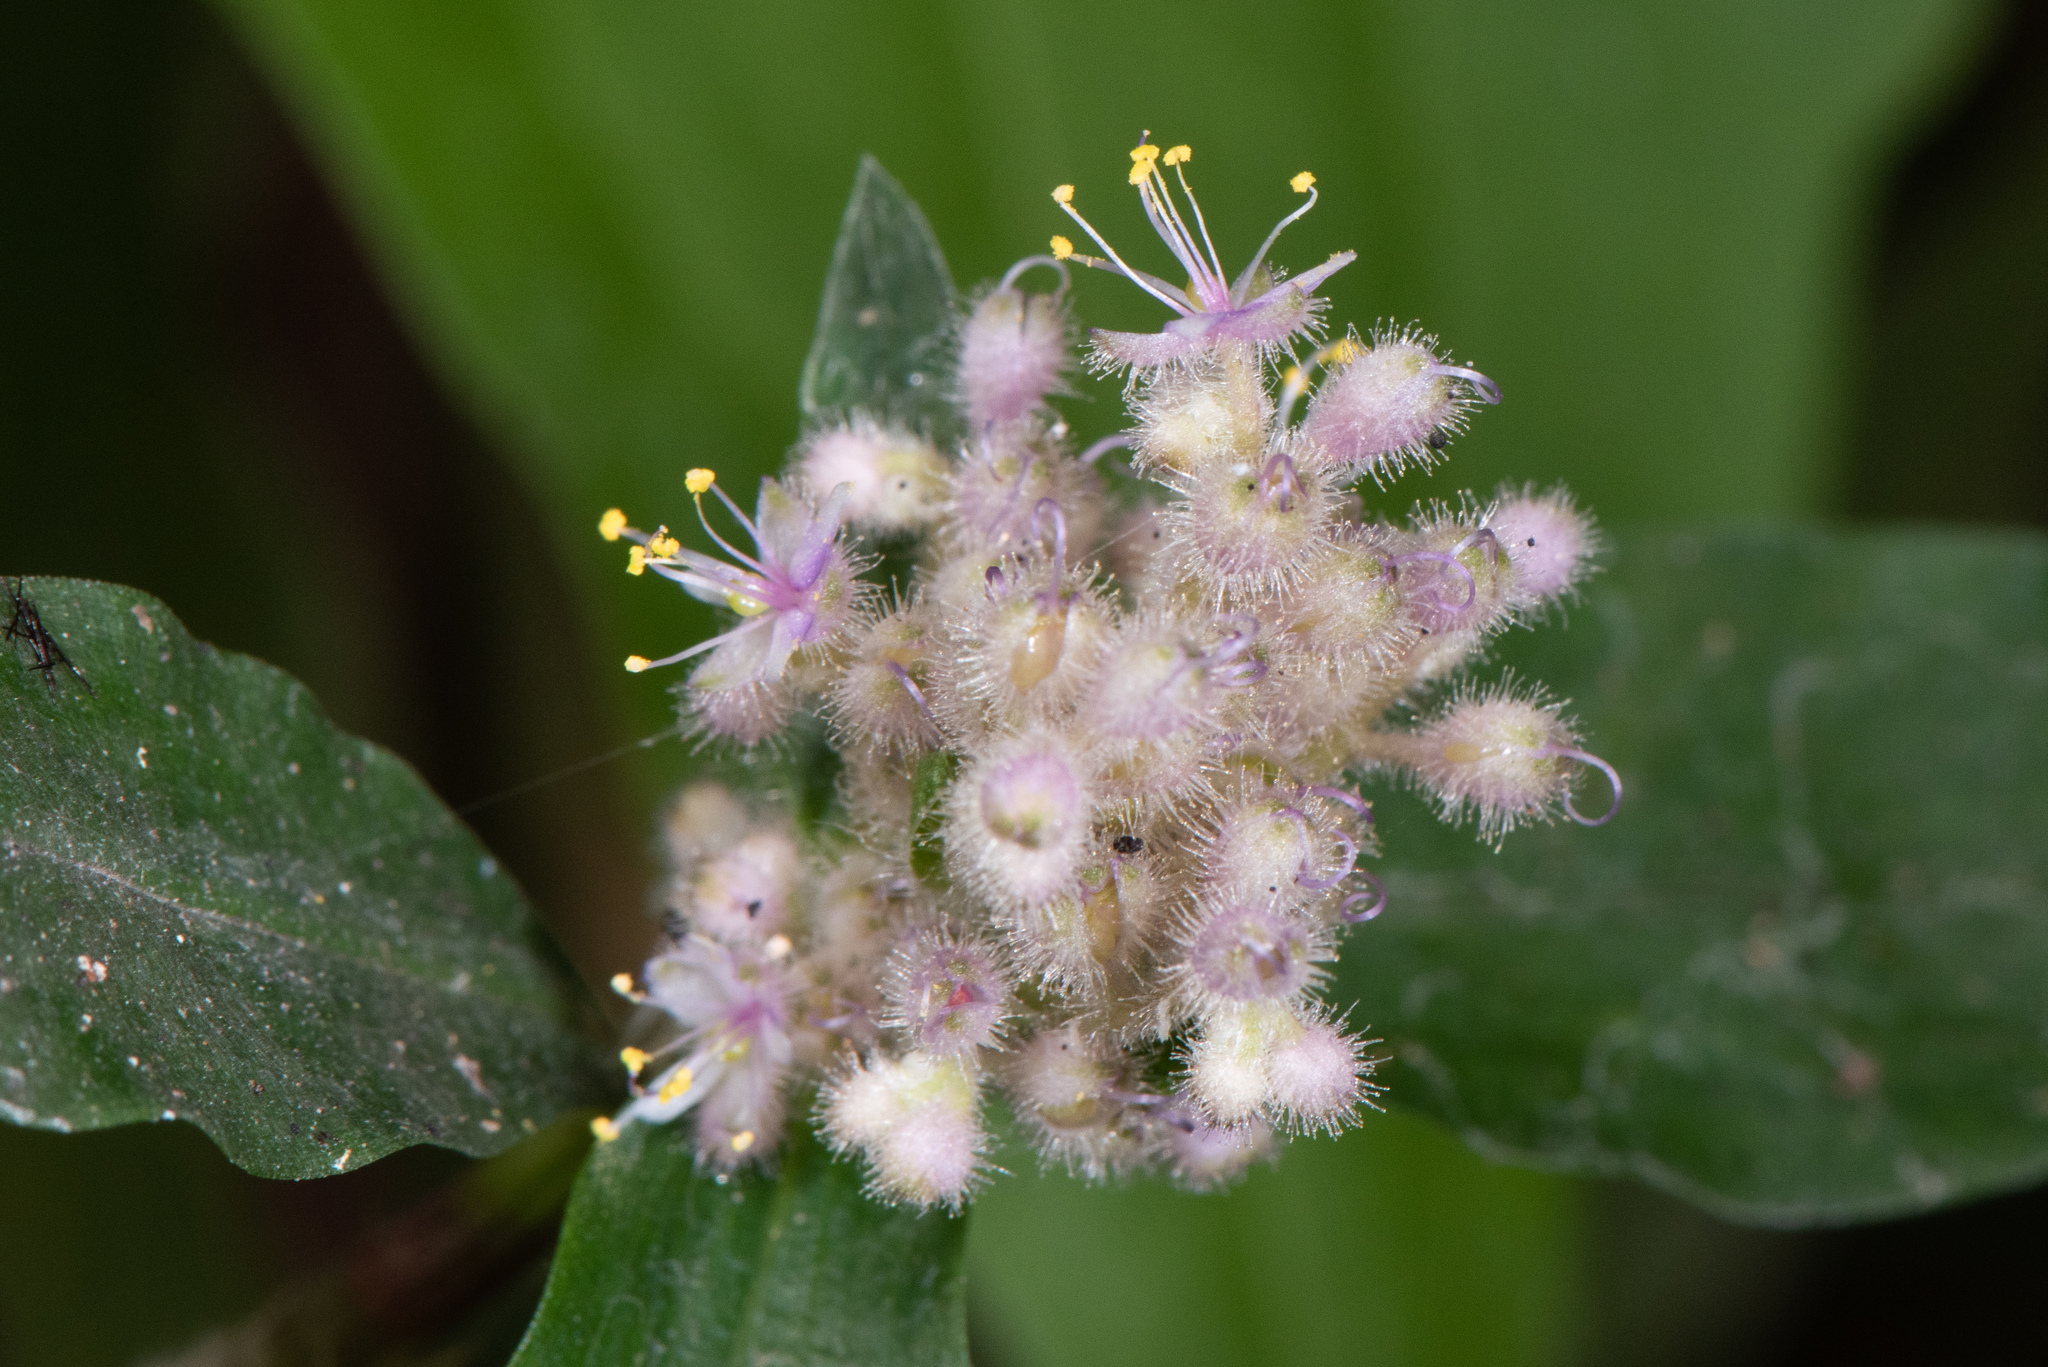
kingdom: Plantae
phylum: Tracheophyta
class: Liliopsida
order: Commelinales
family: Commelinaceae
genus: Floscopa
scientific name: Floscopa scandens
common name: Climbing flower cup
